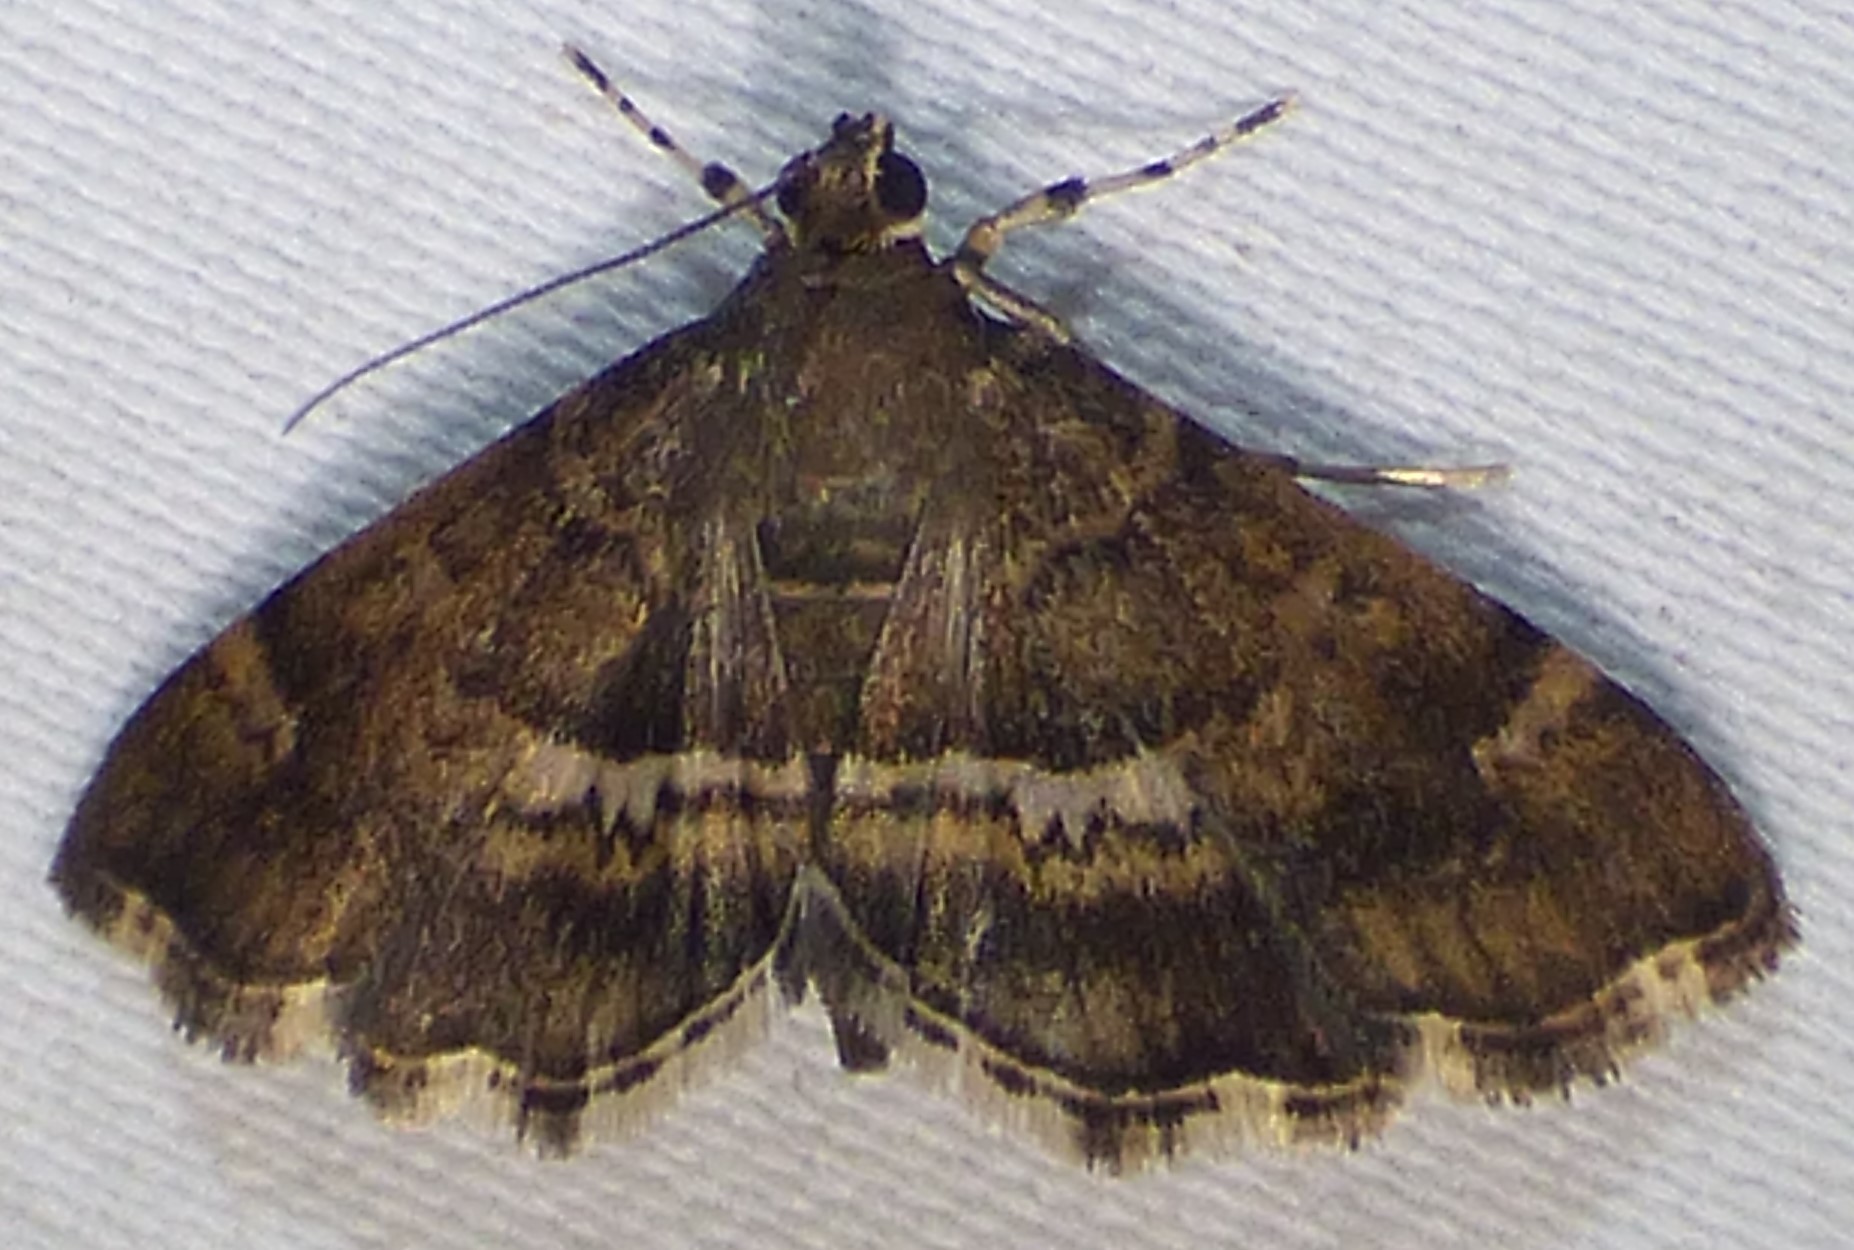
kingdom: Animalia
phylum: Arthropoda
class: Insecta
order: Lepidoptera
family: Crambidae
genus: Hymenia
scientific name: Hymenia perspectalis
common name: Spotted beet webworm
